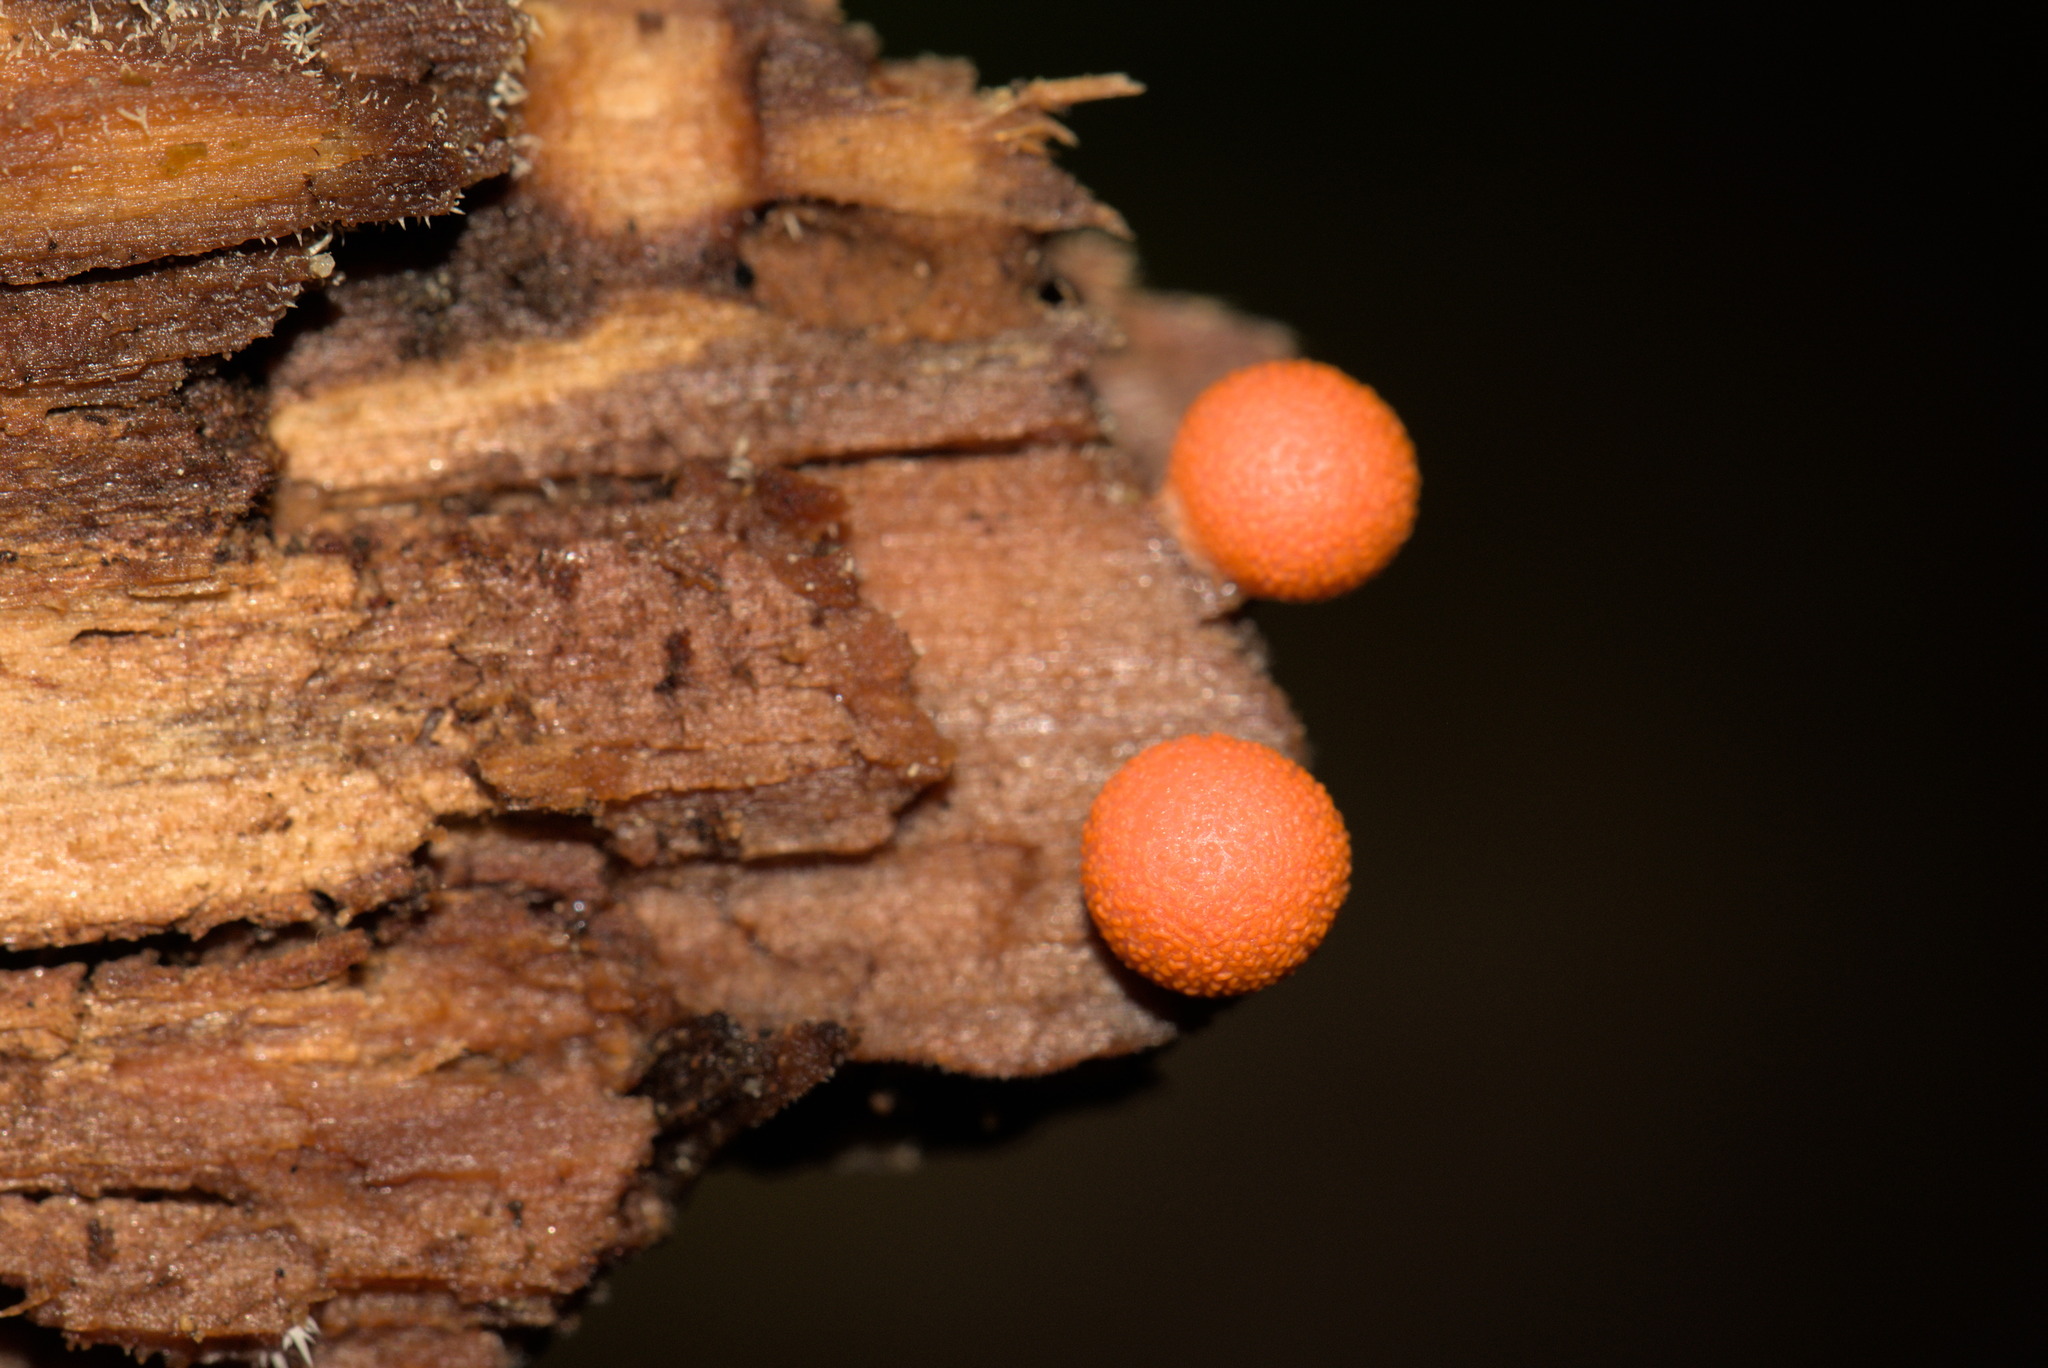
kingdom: Protozoa
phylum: Mycetozoa
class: Myxomycetes
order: Cribrariales
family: Tubiferaceae
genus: Lycogala
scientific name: Lycogala epidendrum
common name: Wolf's milk
